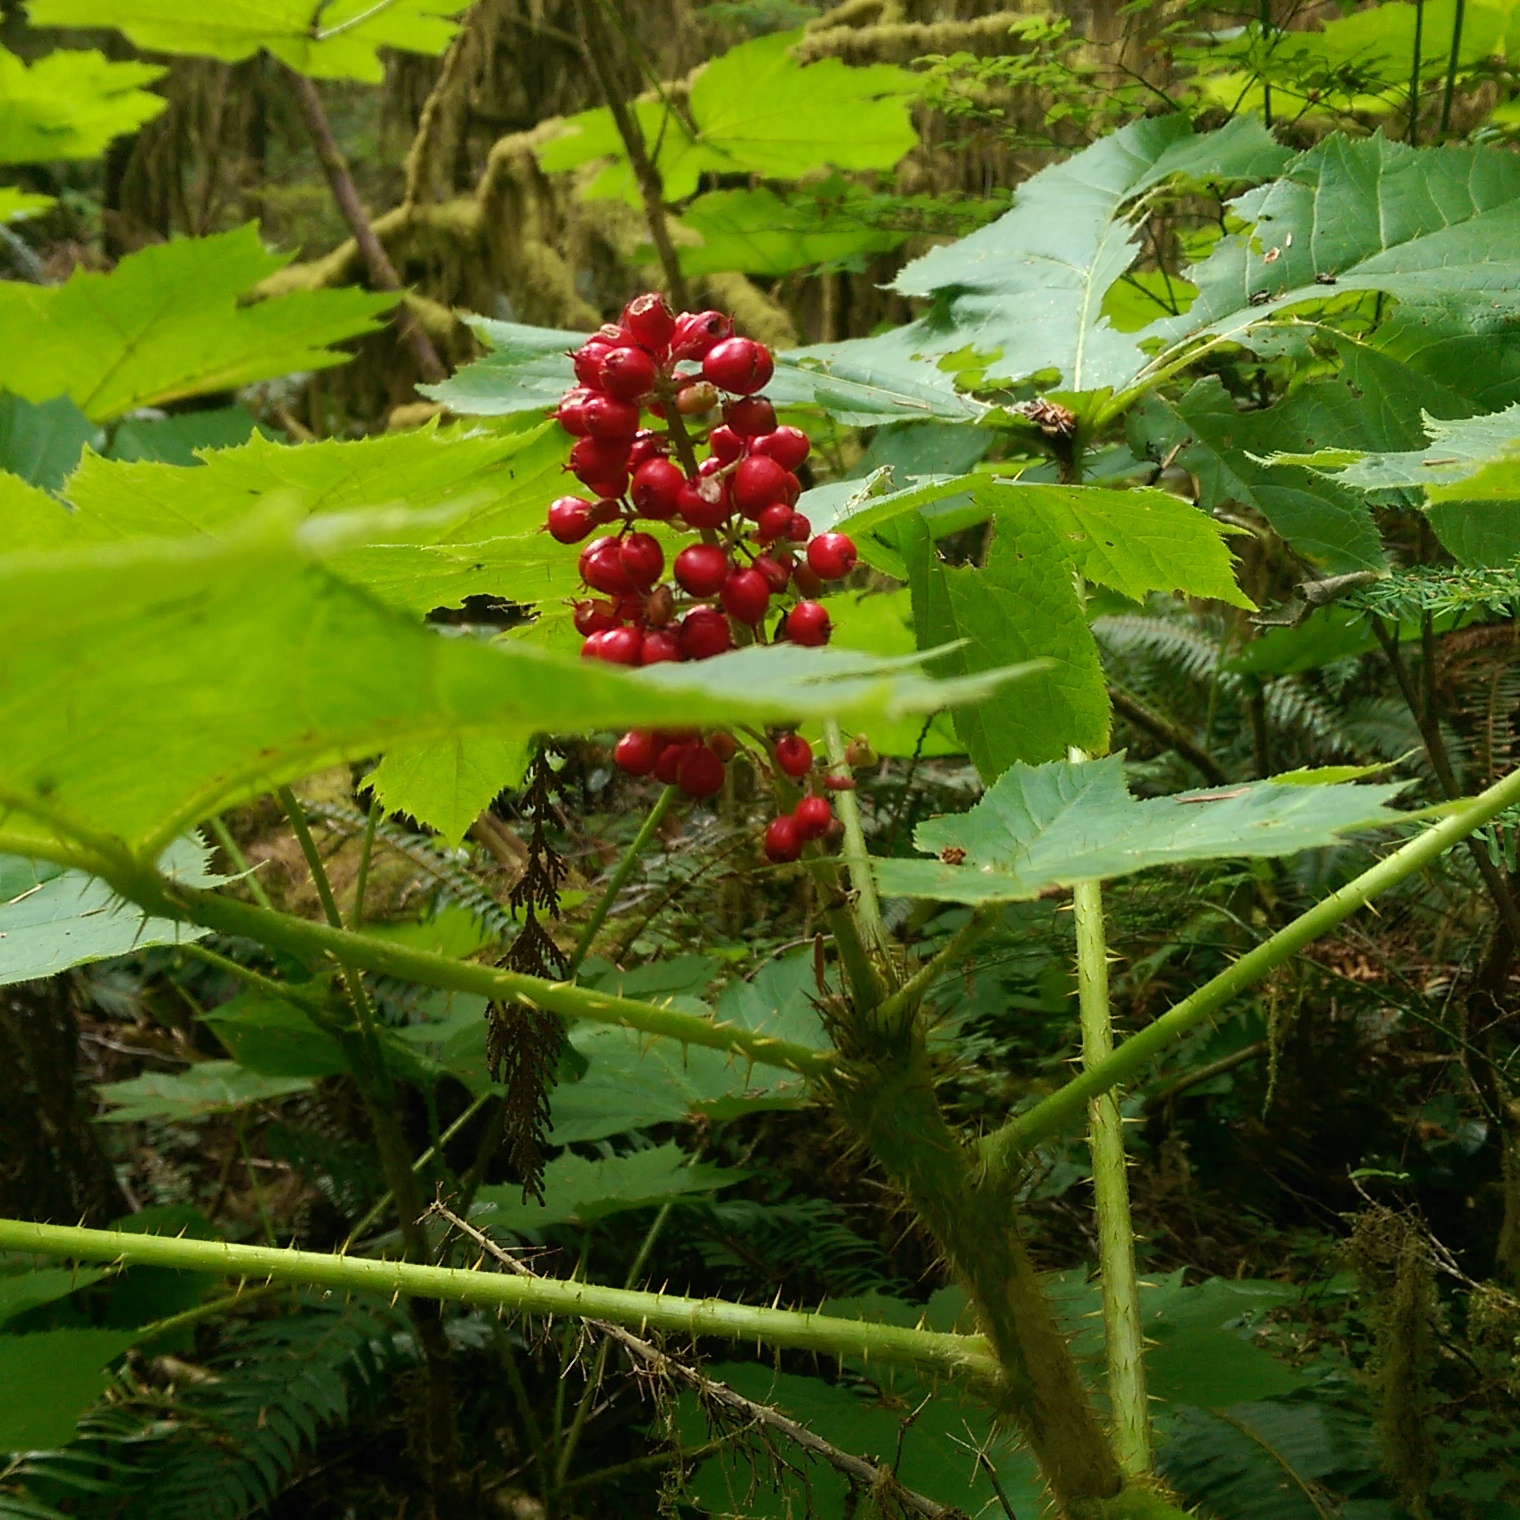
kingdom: Plantae
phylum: Tracheophyta
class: Magnoliopsida
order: Apiales
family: Araliaceae
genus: Oplopanax
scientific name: Oplopanax horridus
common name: Devil's walking-stick
